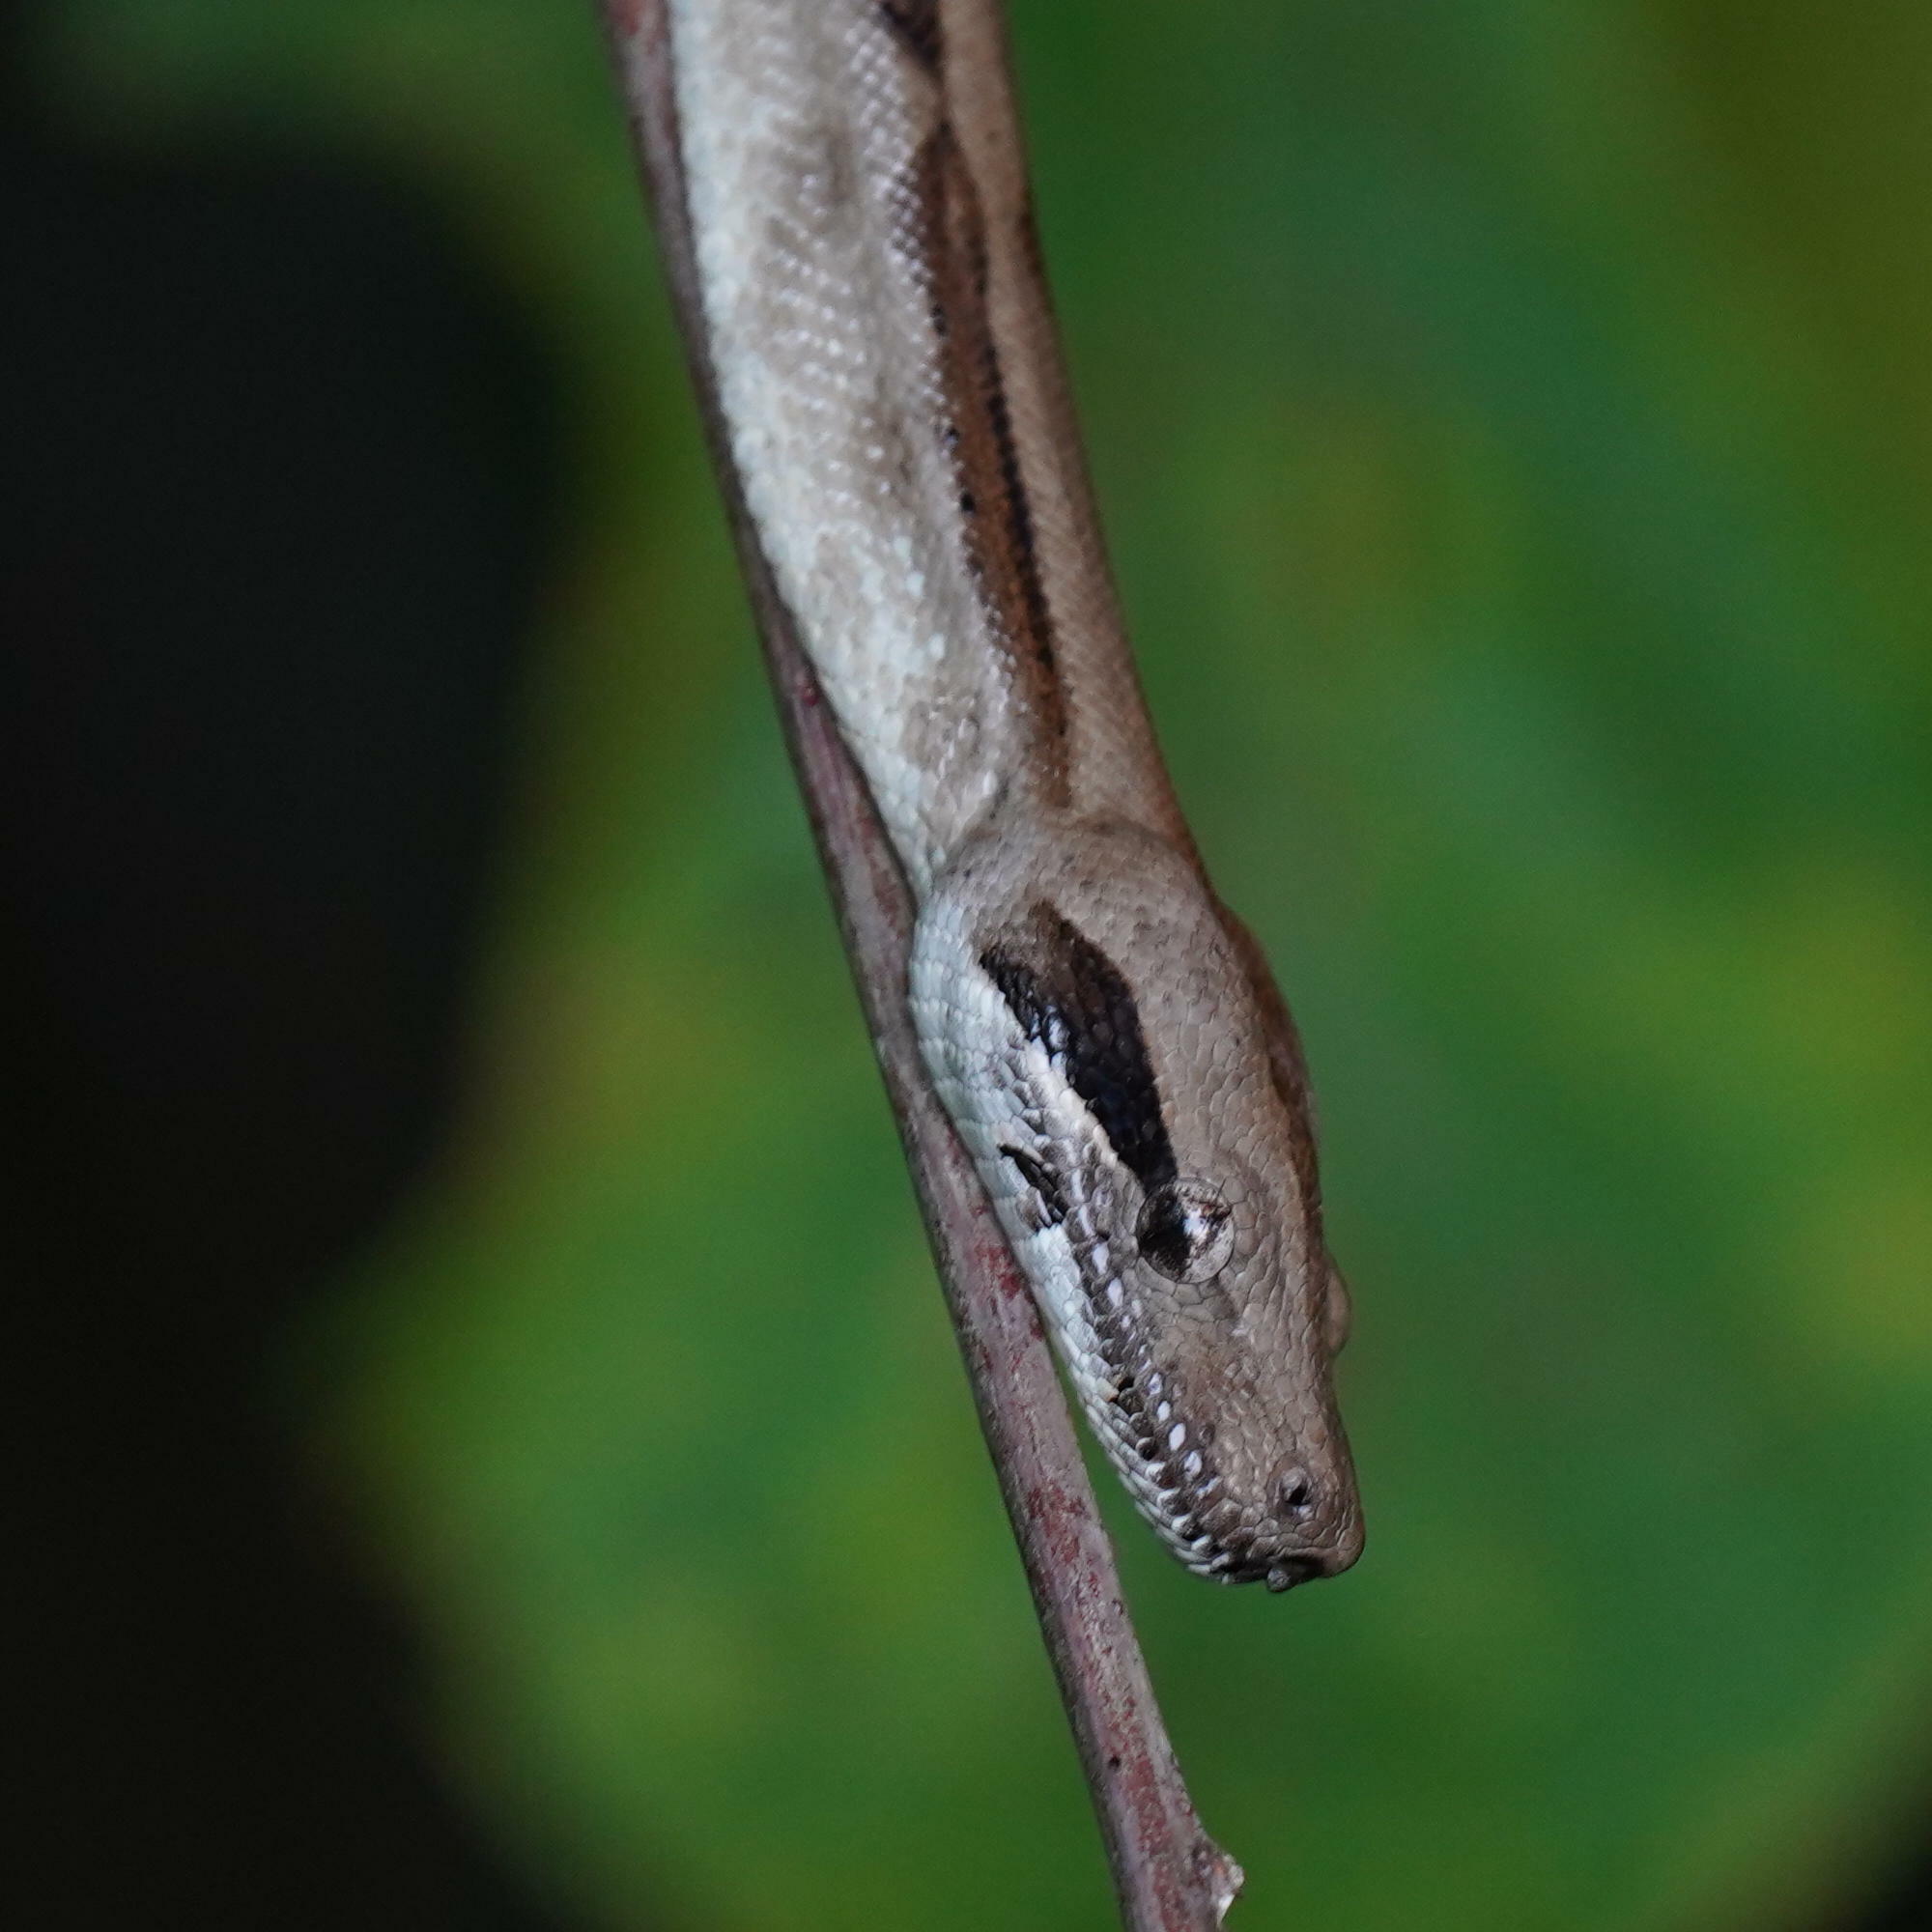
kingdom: Animalia
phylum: Chordata
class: Squamata
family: Boidae
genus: Boa
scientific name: Boa imperator
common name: Central american boa
